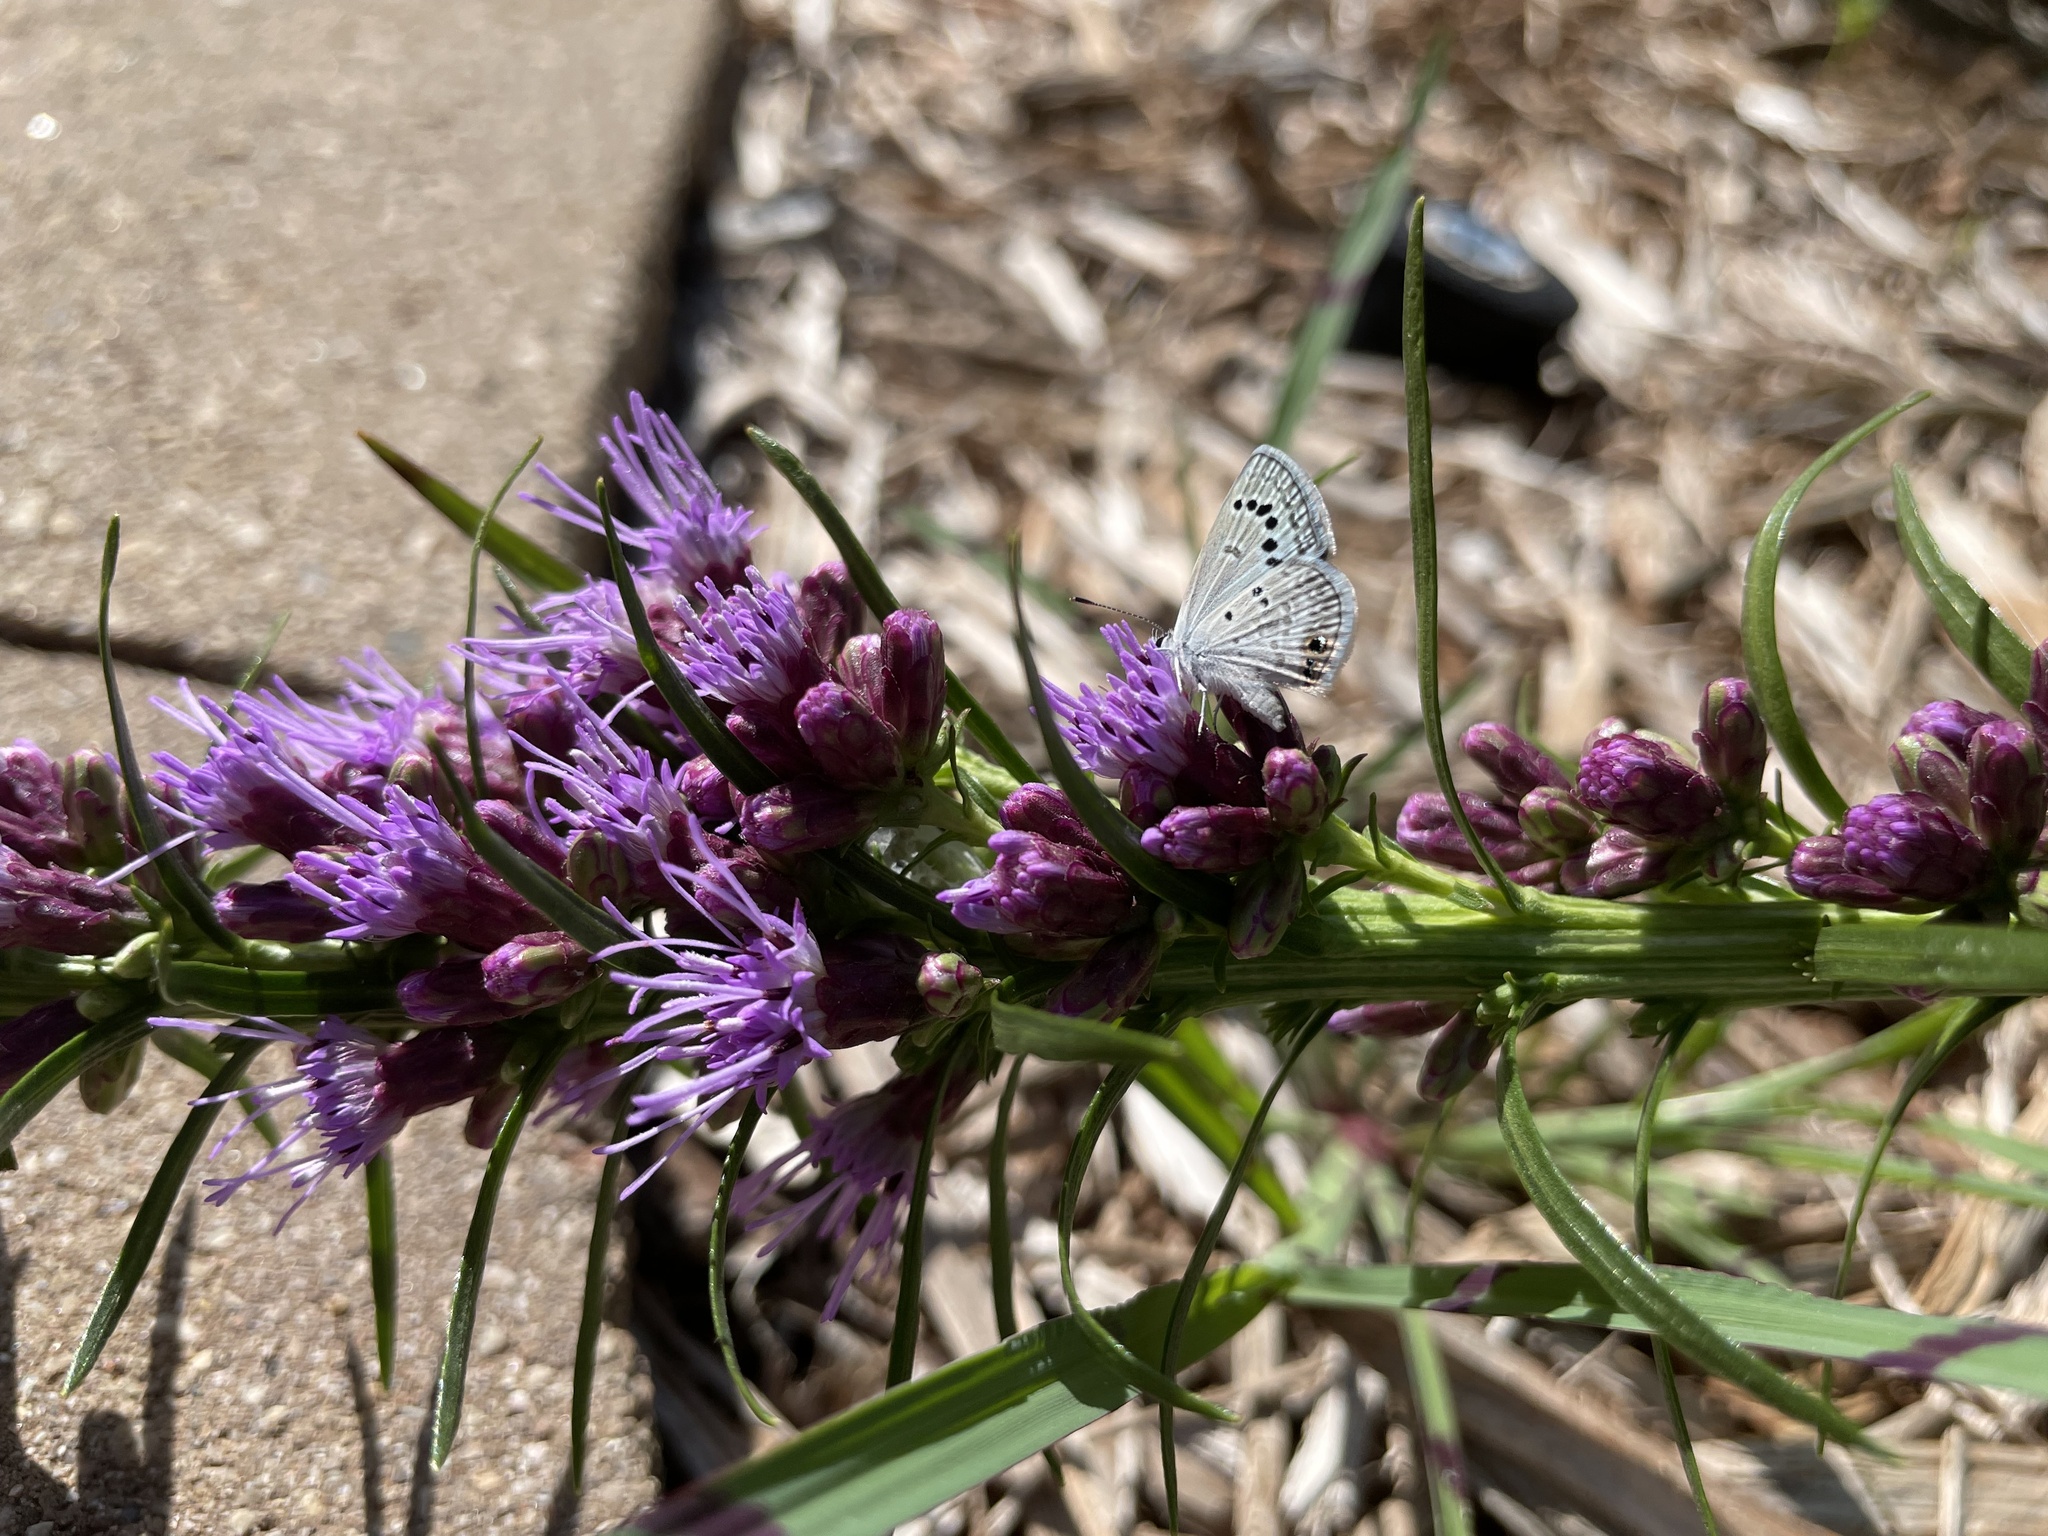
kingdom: Animalia
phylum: Arthropoda
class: Insecta
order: Lepidoptera
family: Lycaenidae
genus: Echinargus
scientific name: Echinargus isola
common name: Reakirt's blue
